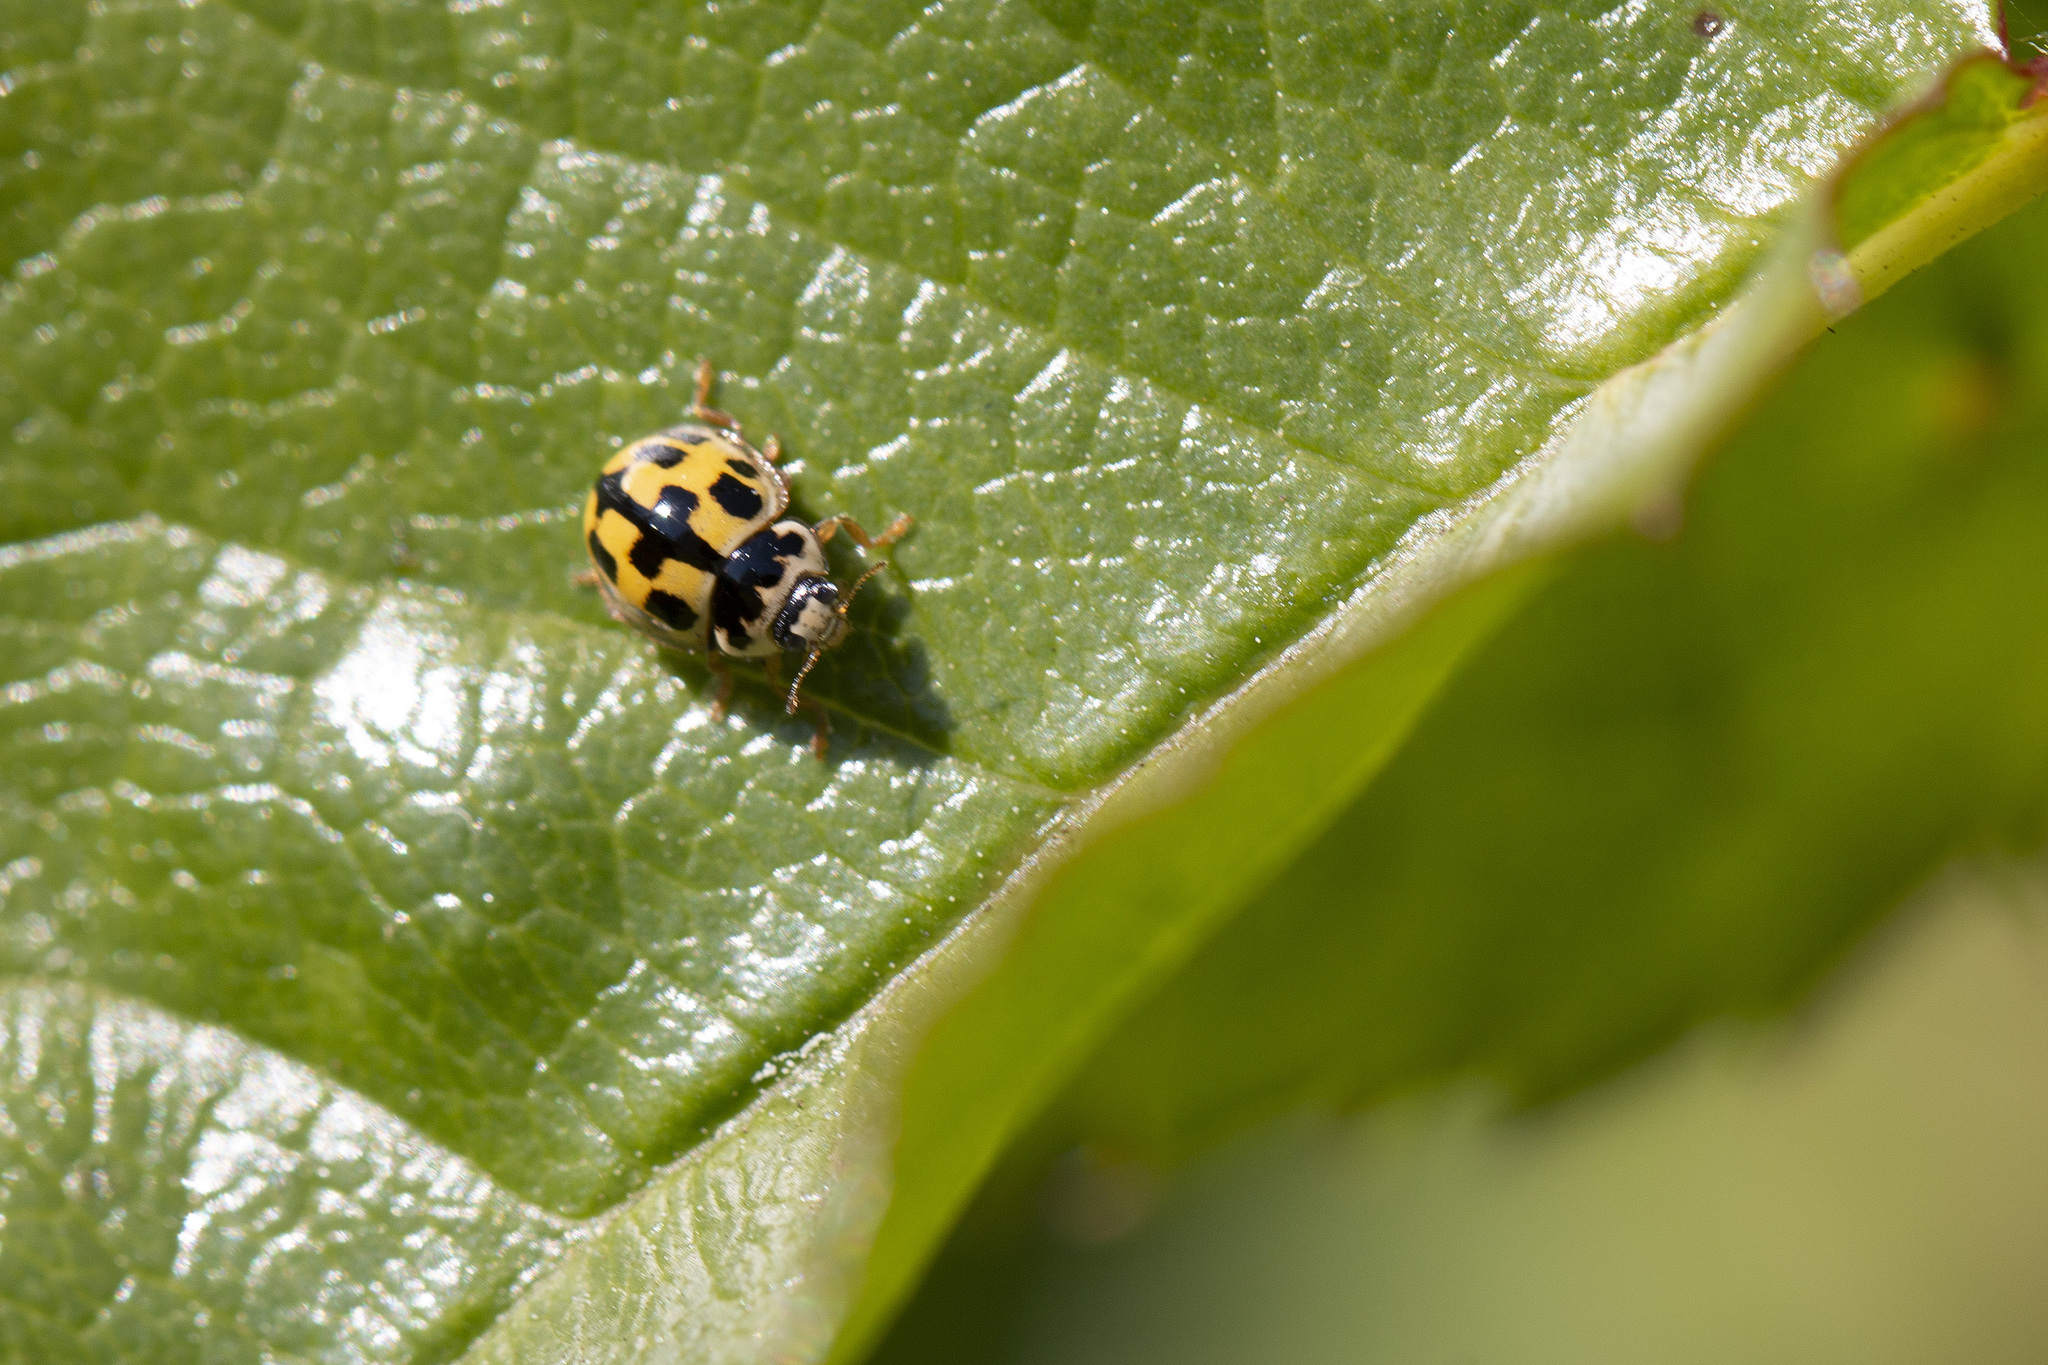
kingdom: Animalia
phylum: Arthropoda
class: Insecta
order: Coleoptera
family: Coccinellidae
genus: Propylaea
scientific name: Propylaea quatuordecimpunctata
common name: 14-spotted ladybird beetle
